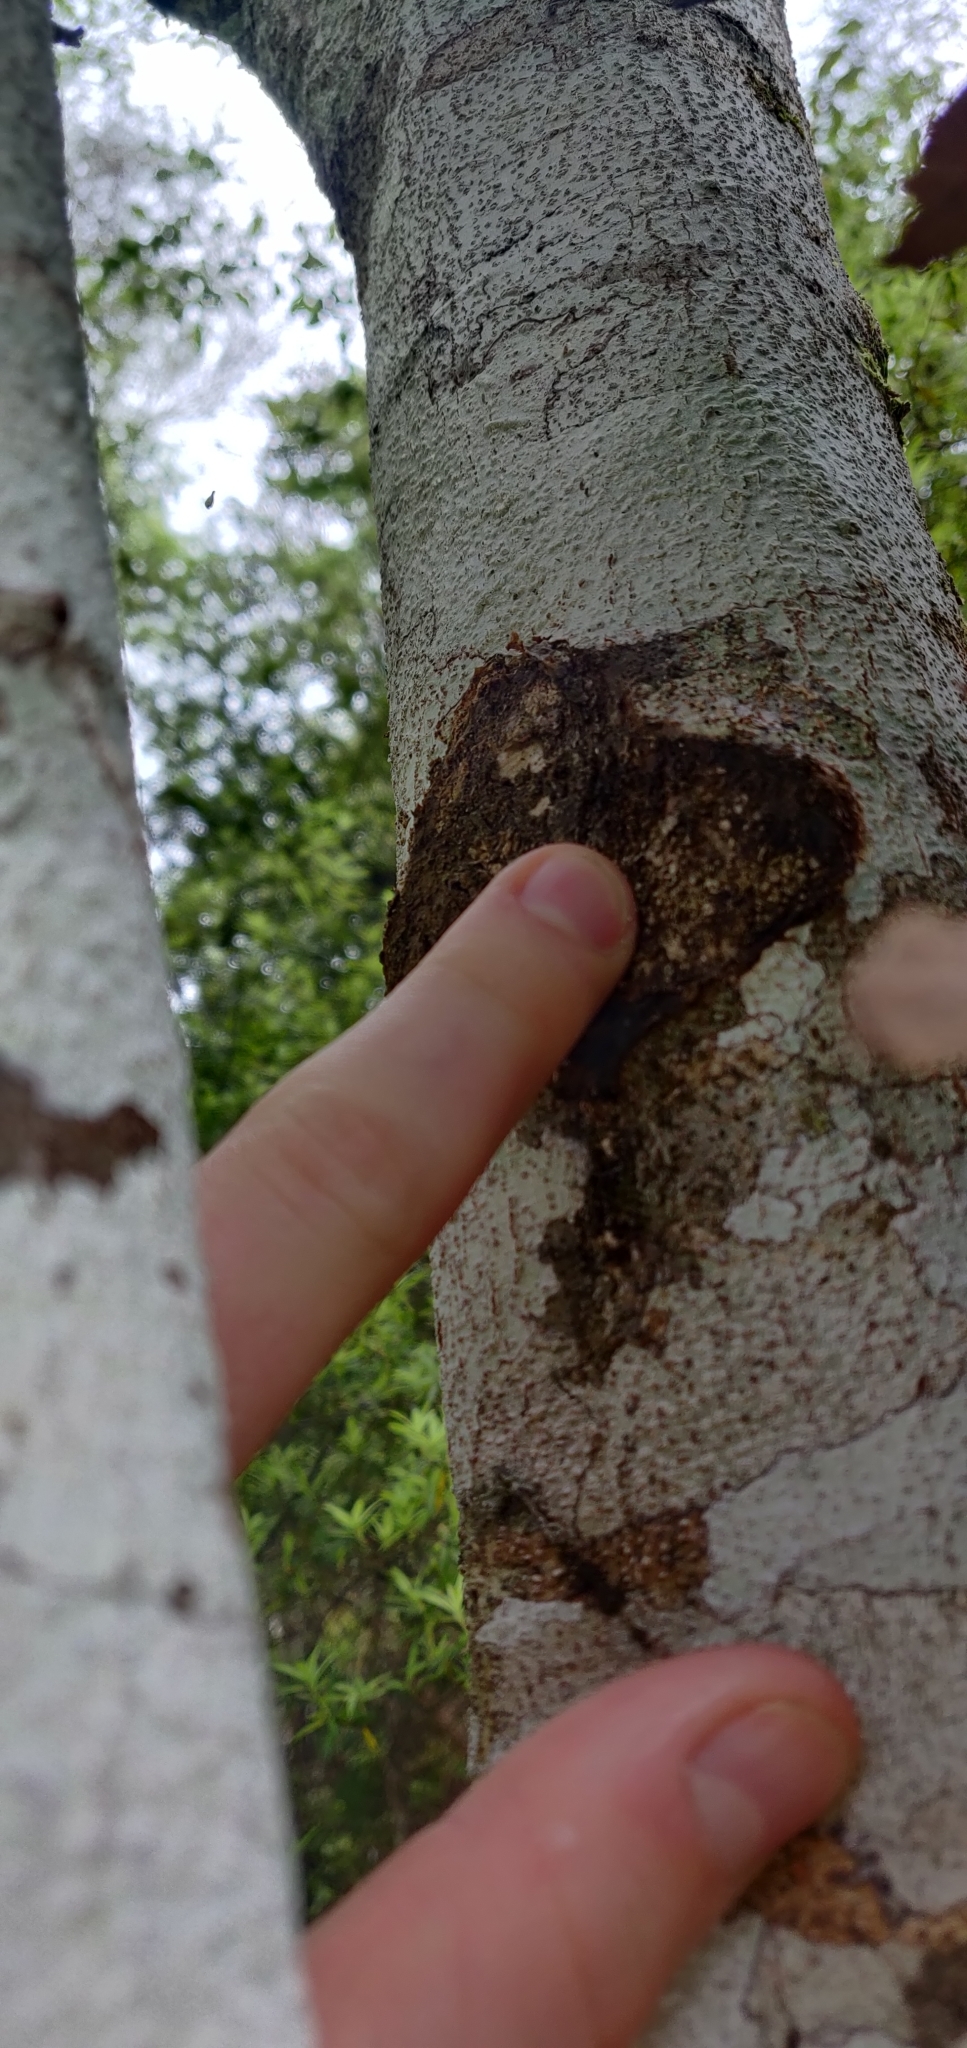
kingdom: Animalia
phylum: Arthropoda
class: Insecta
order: Lepidoptera
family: Hepialidae
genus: Aenetus
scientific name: Aenetus virescens
